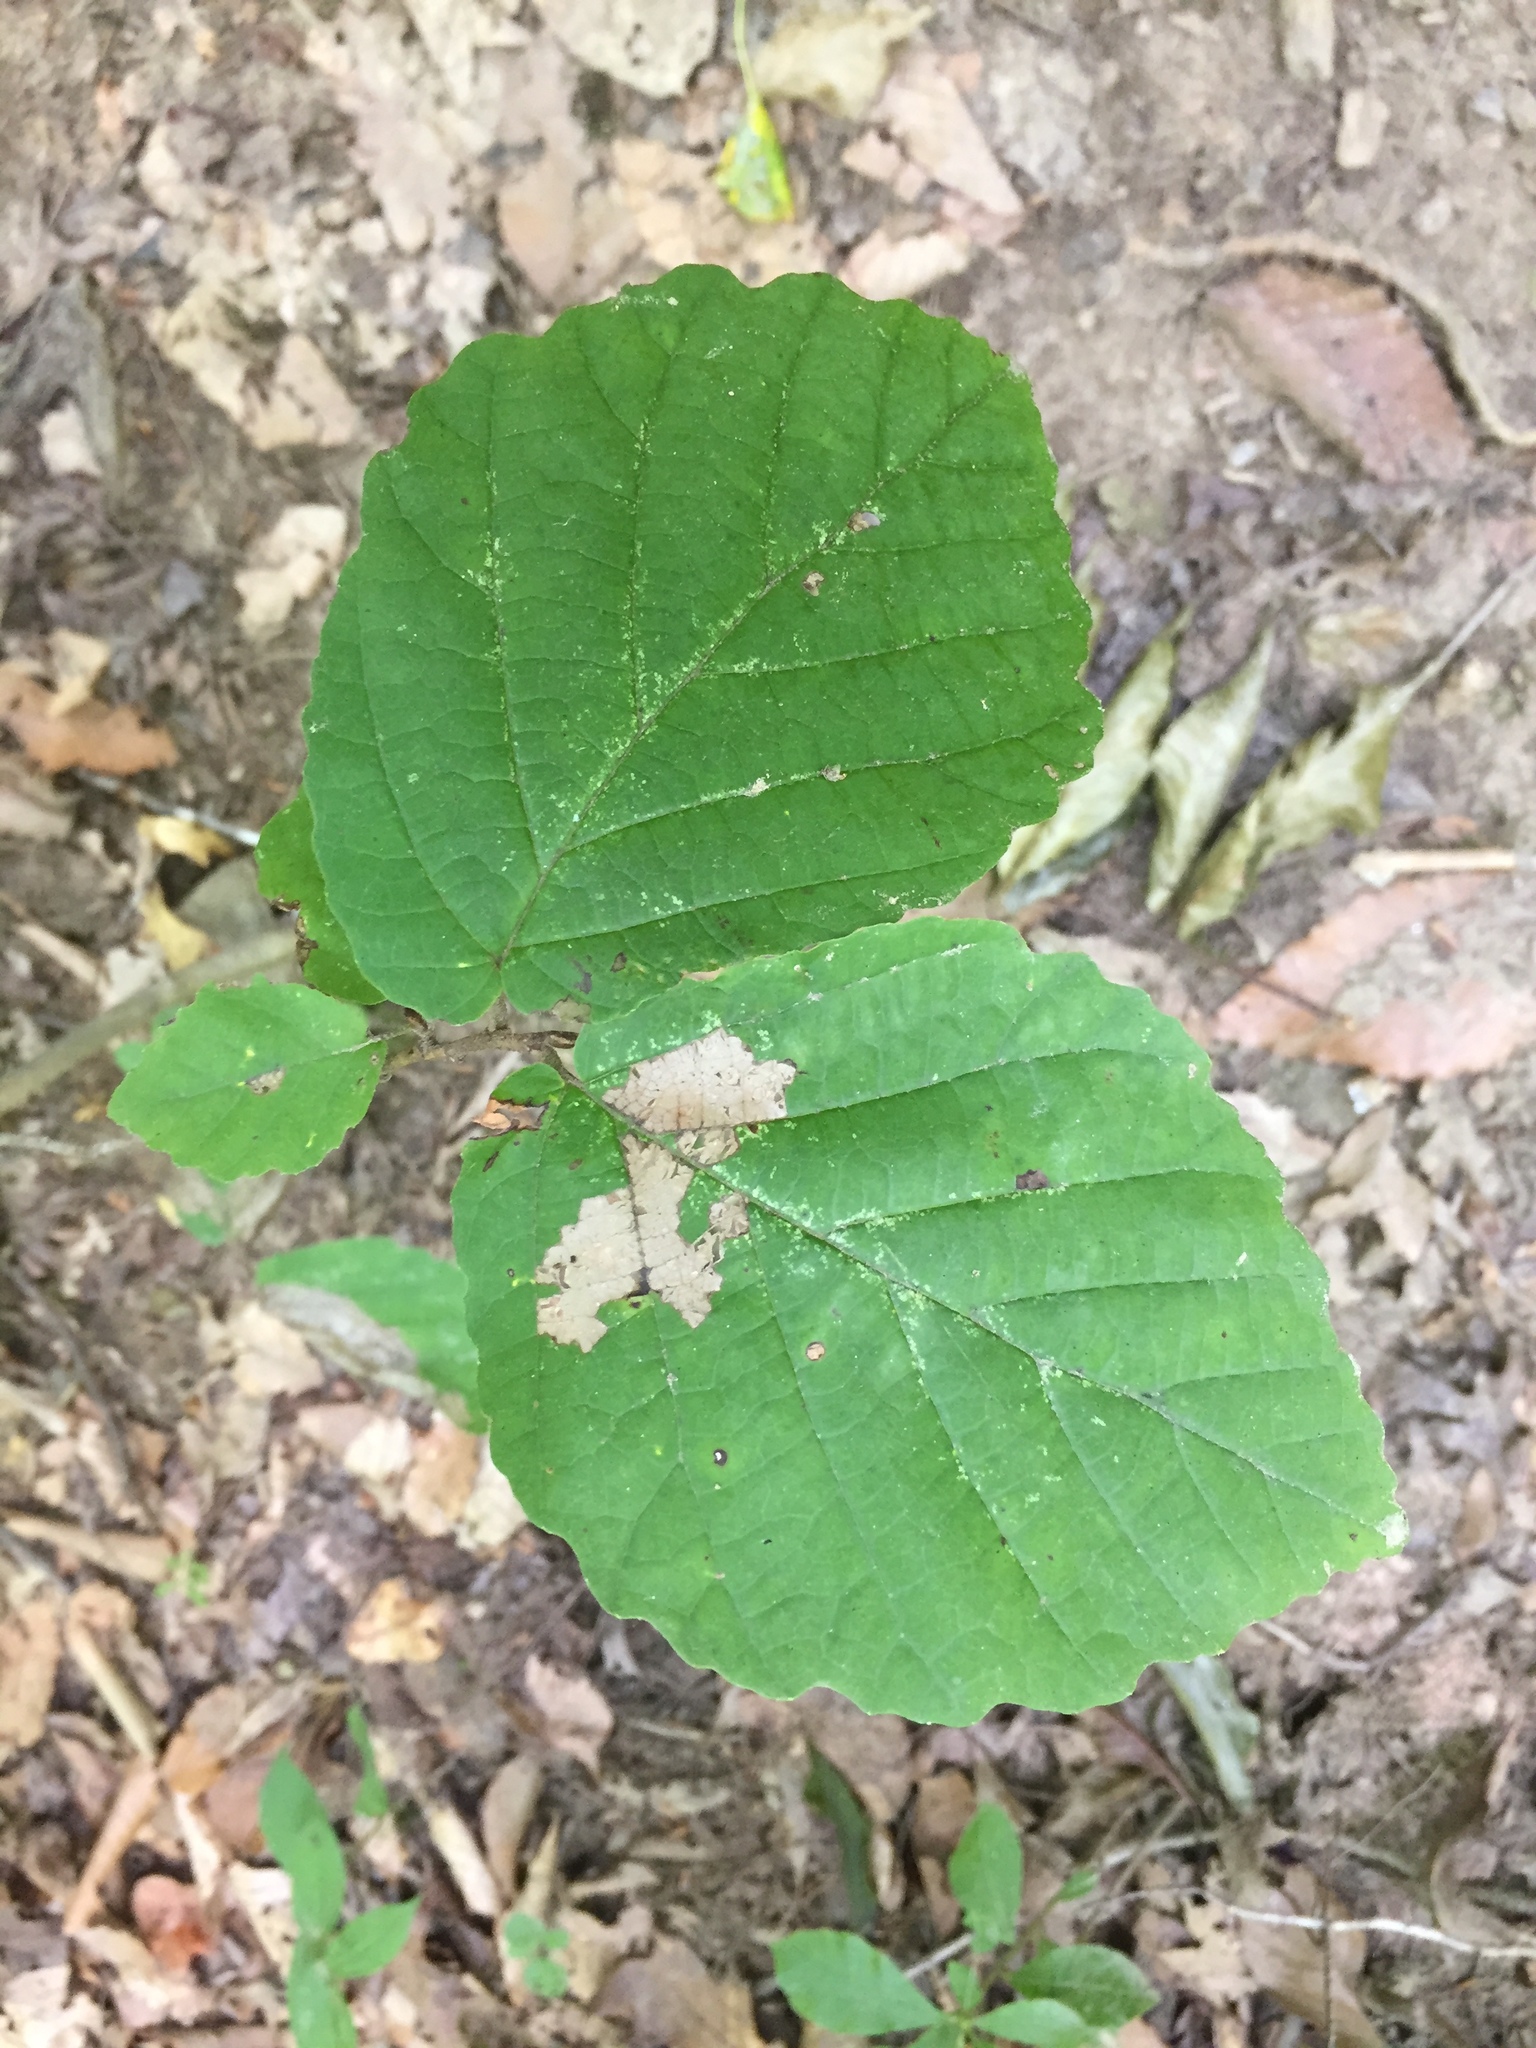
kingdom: Plantae
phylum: Tracheophyta
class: Magnoliopsida
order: Saxifragales
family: Hamamelidaceae
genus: Hamamelis
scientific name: Hamamelis virginiana
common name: Witch-hazel
